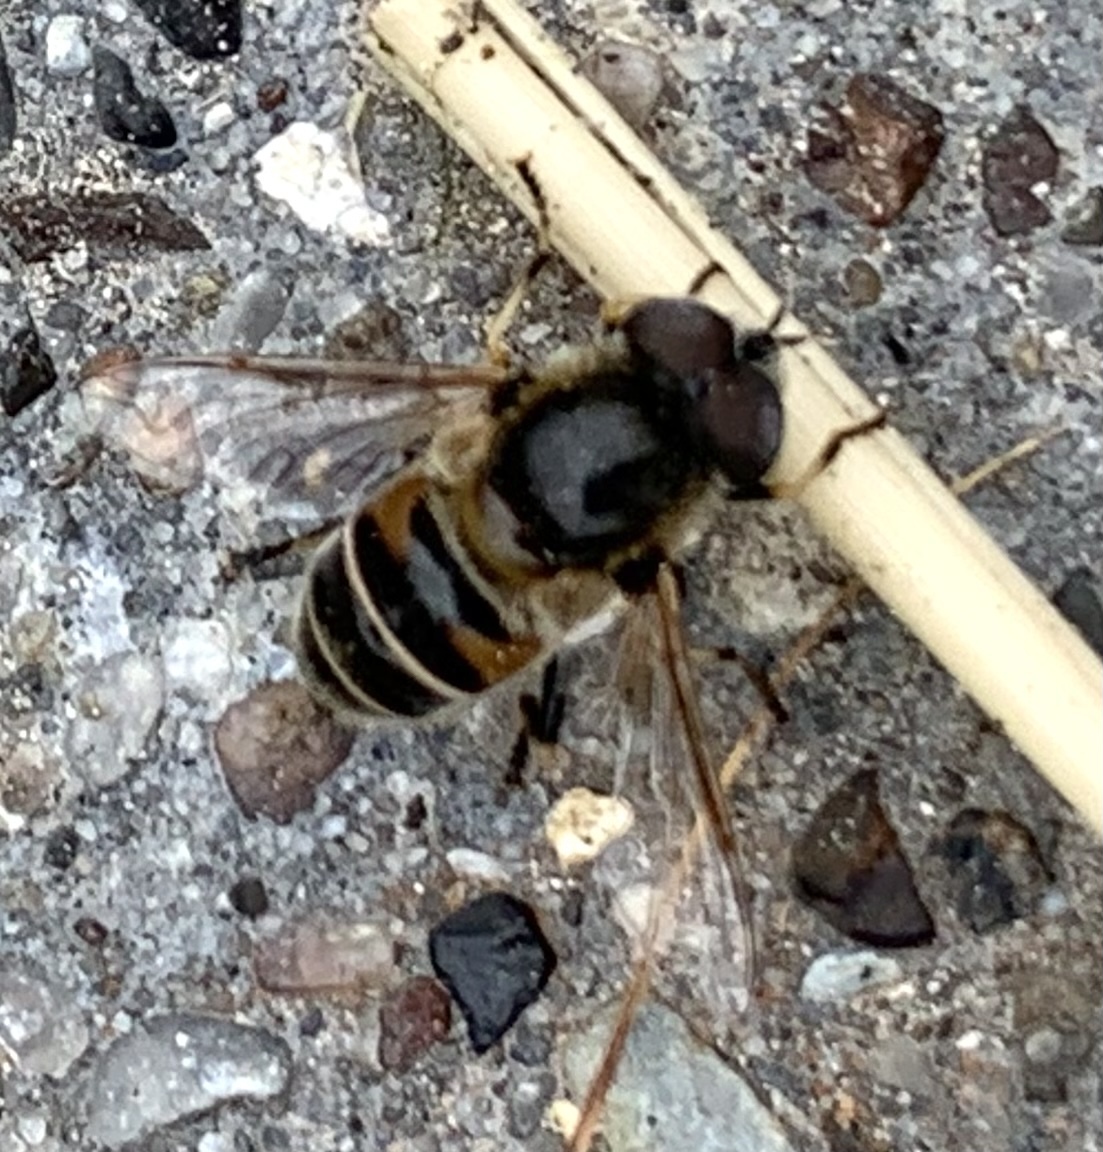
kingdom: Animalia
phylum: Arthropoda
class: Insecta
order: Diptera
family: Syrphidae
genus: Eristalis
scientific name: Eristalis stipator
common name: Yellow-shouldered drone fly
